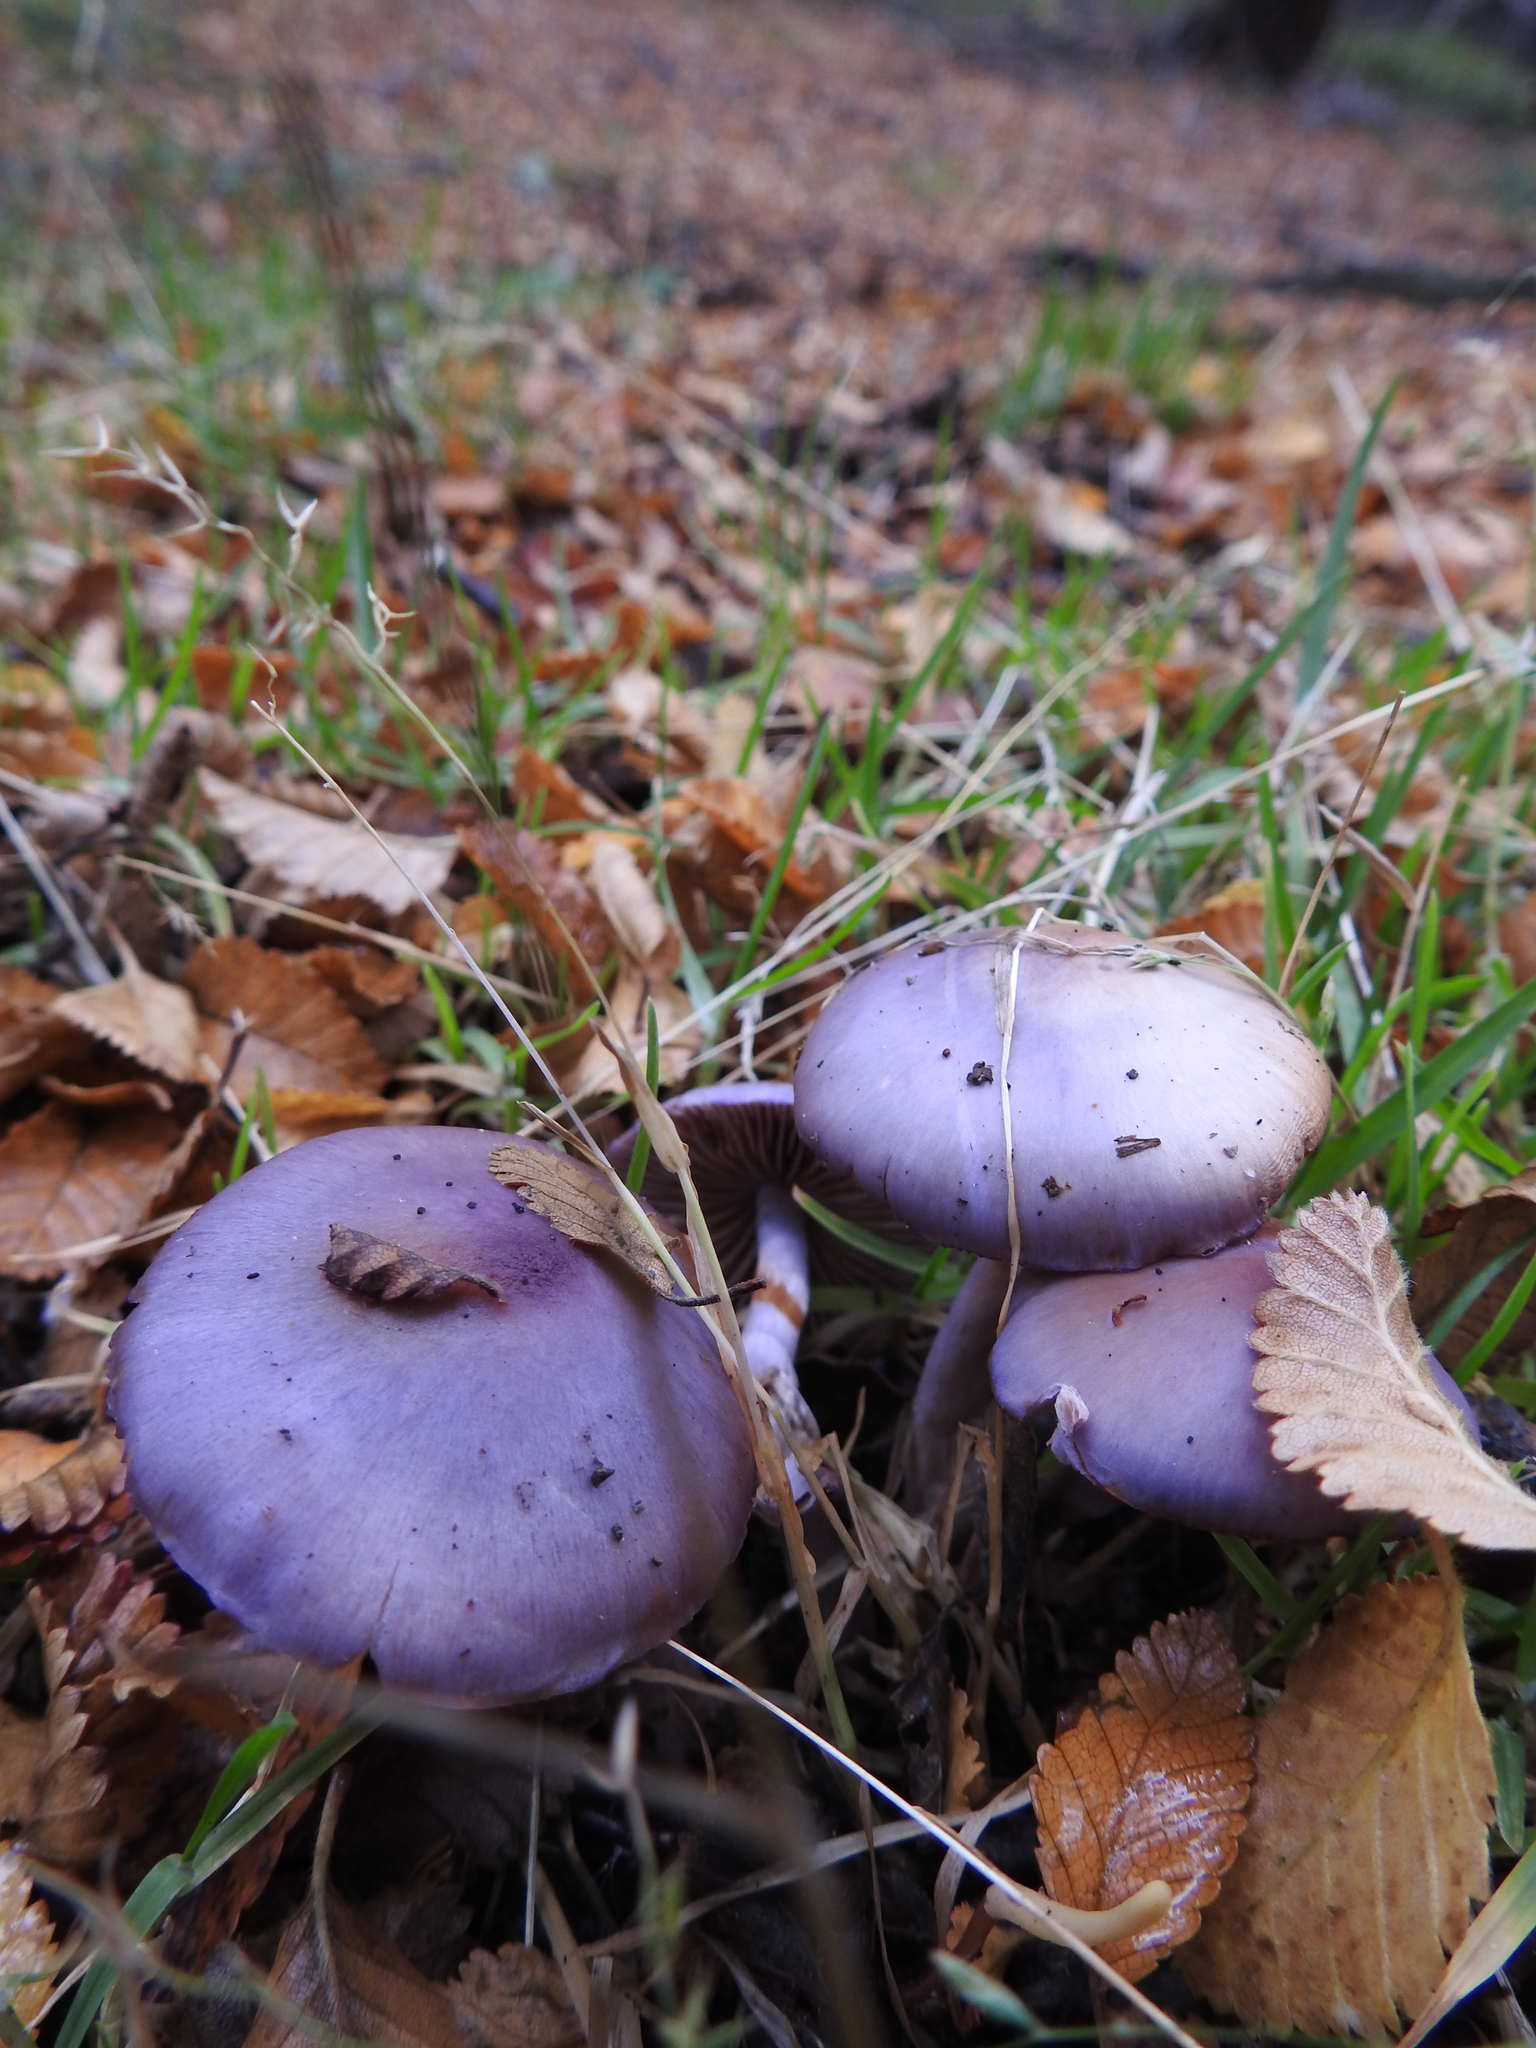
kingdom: Fungi
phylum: Basidiomycota
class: Agaricomycetes
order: Agaricales
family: Cortinariaceae
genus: Cortinarius
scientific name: Cortinarius magellanicus
